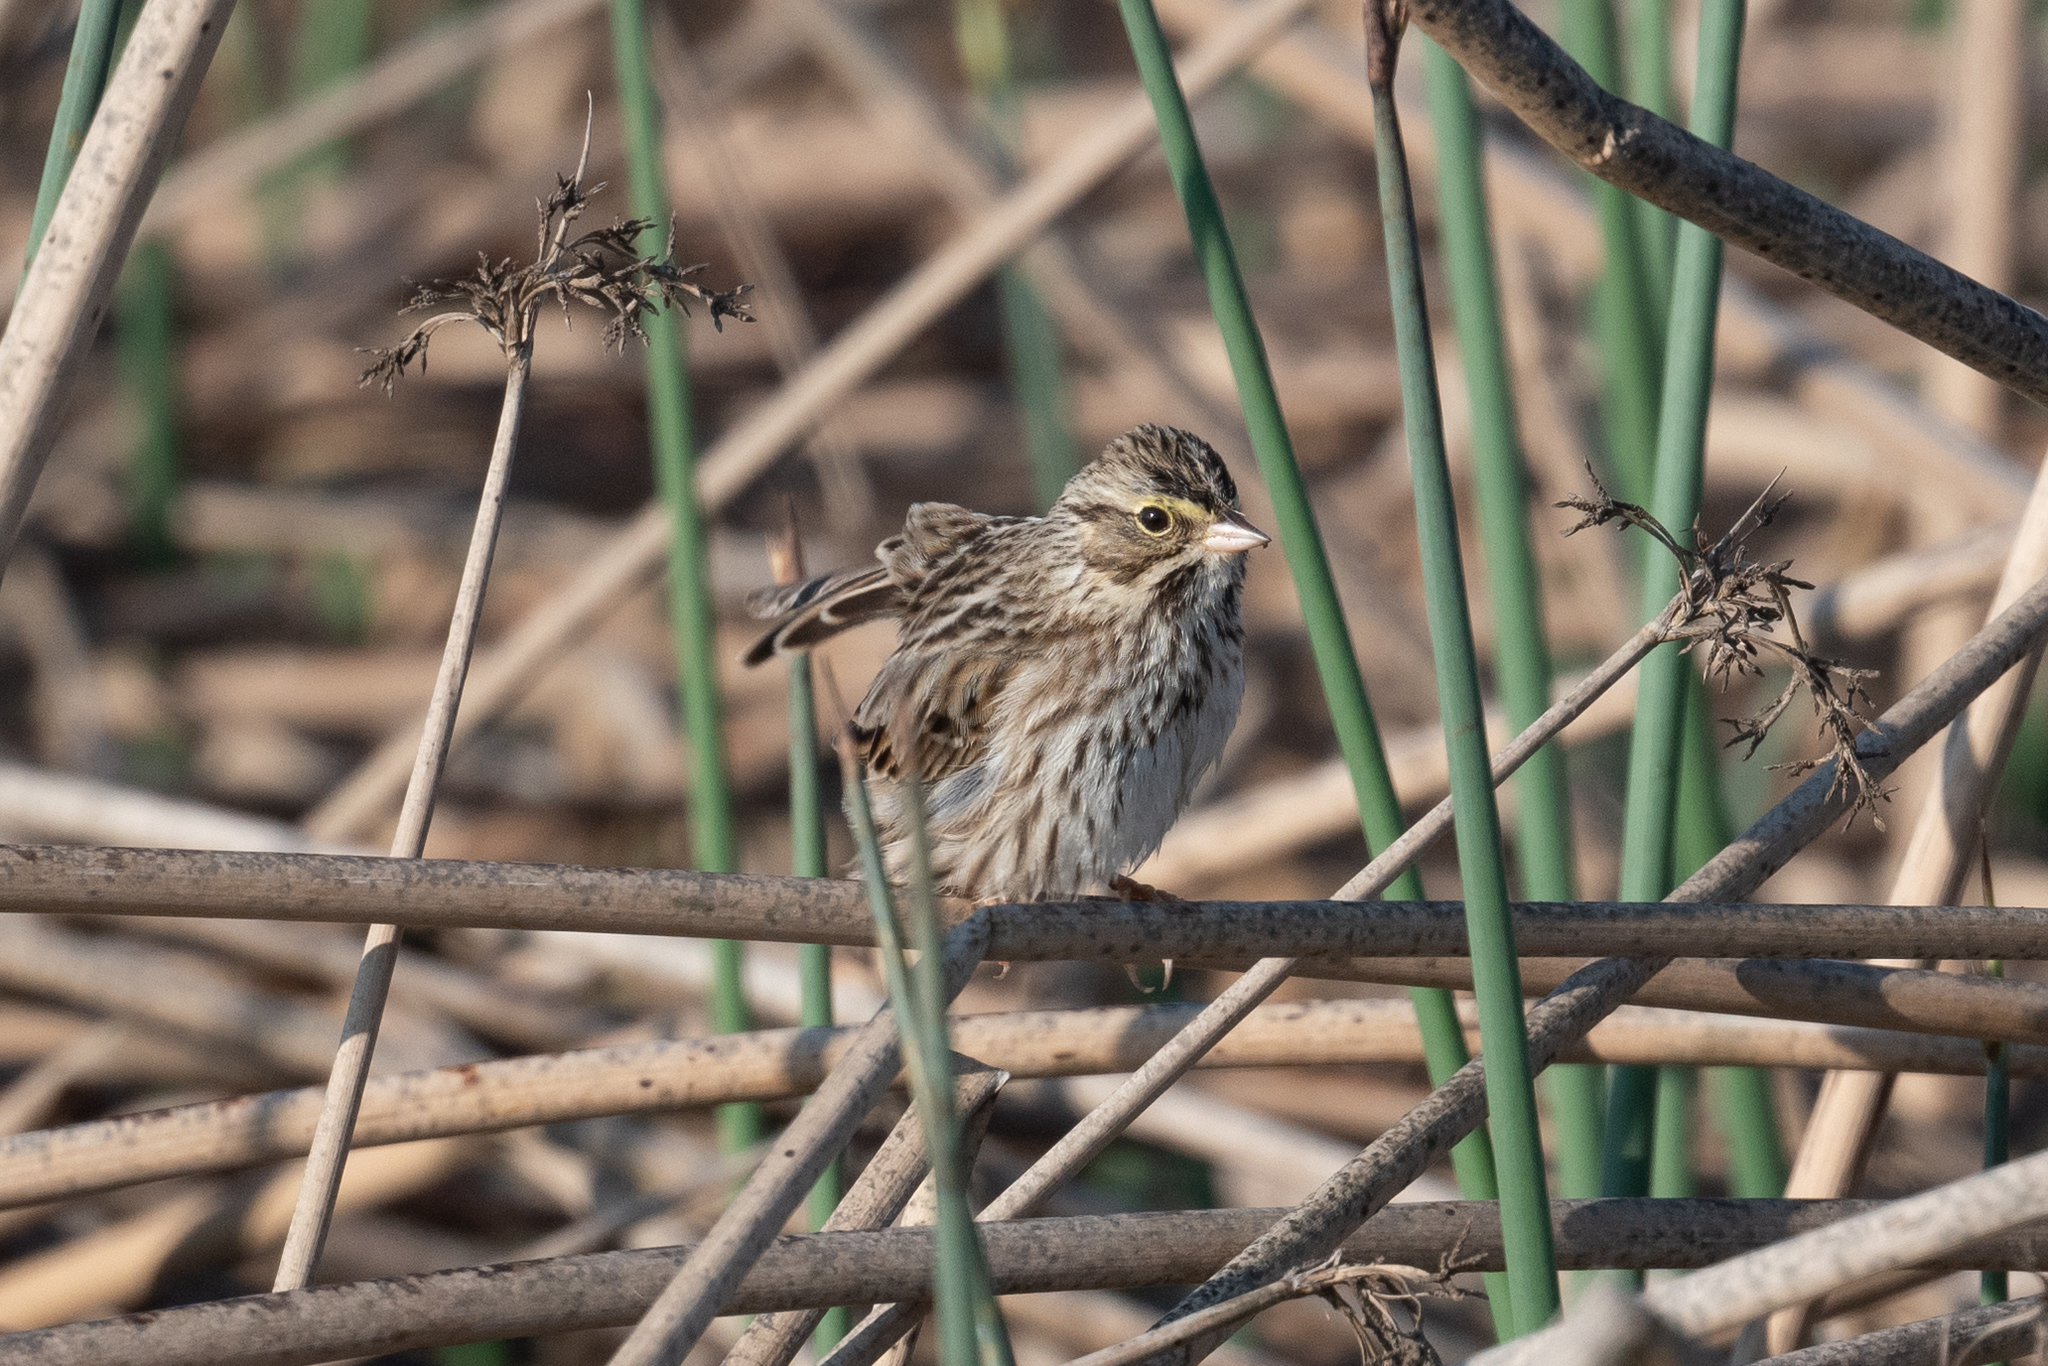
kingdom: Animalia
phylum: Chordata
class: Aves
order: Passeriformes
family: Passerellidae
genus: Passerculus
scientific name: Passerculus sandwichensis
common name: Savannah sparrow
